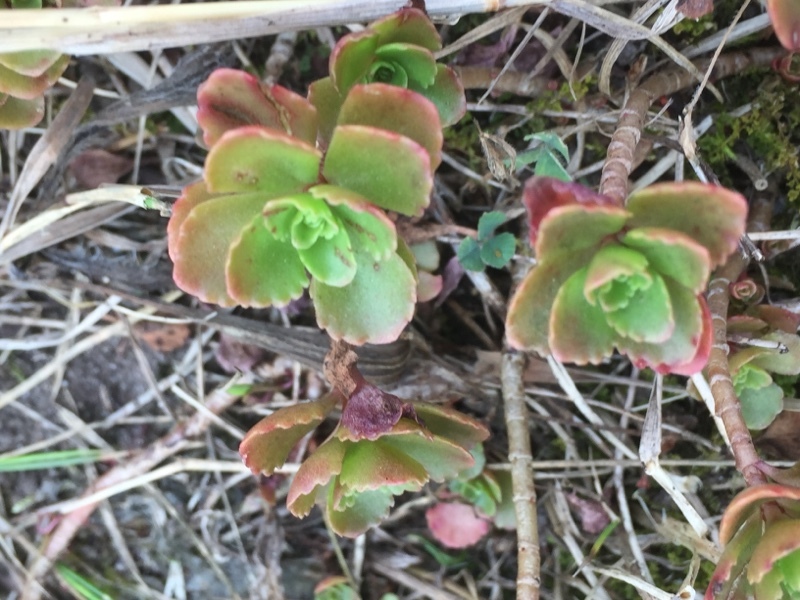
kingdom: Plantae
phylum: Tracheophyta
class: Magnoliopsida
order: Saxifragales
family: Crassulaceae
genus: Phedimus
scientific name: Phedimus spurius
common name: Caucasian stonecrop
